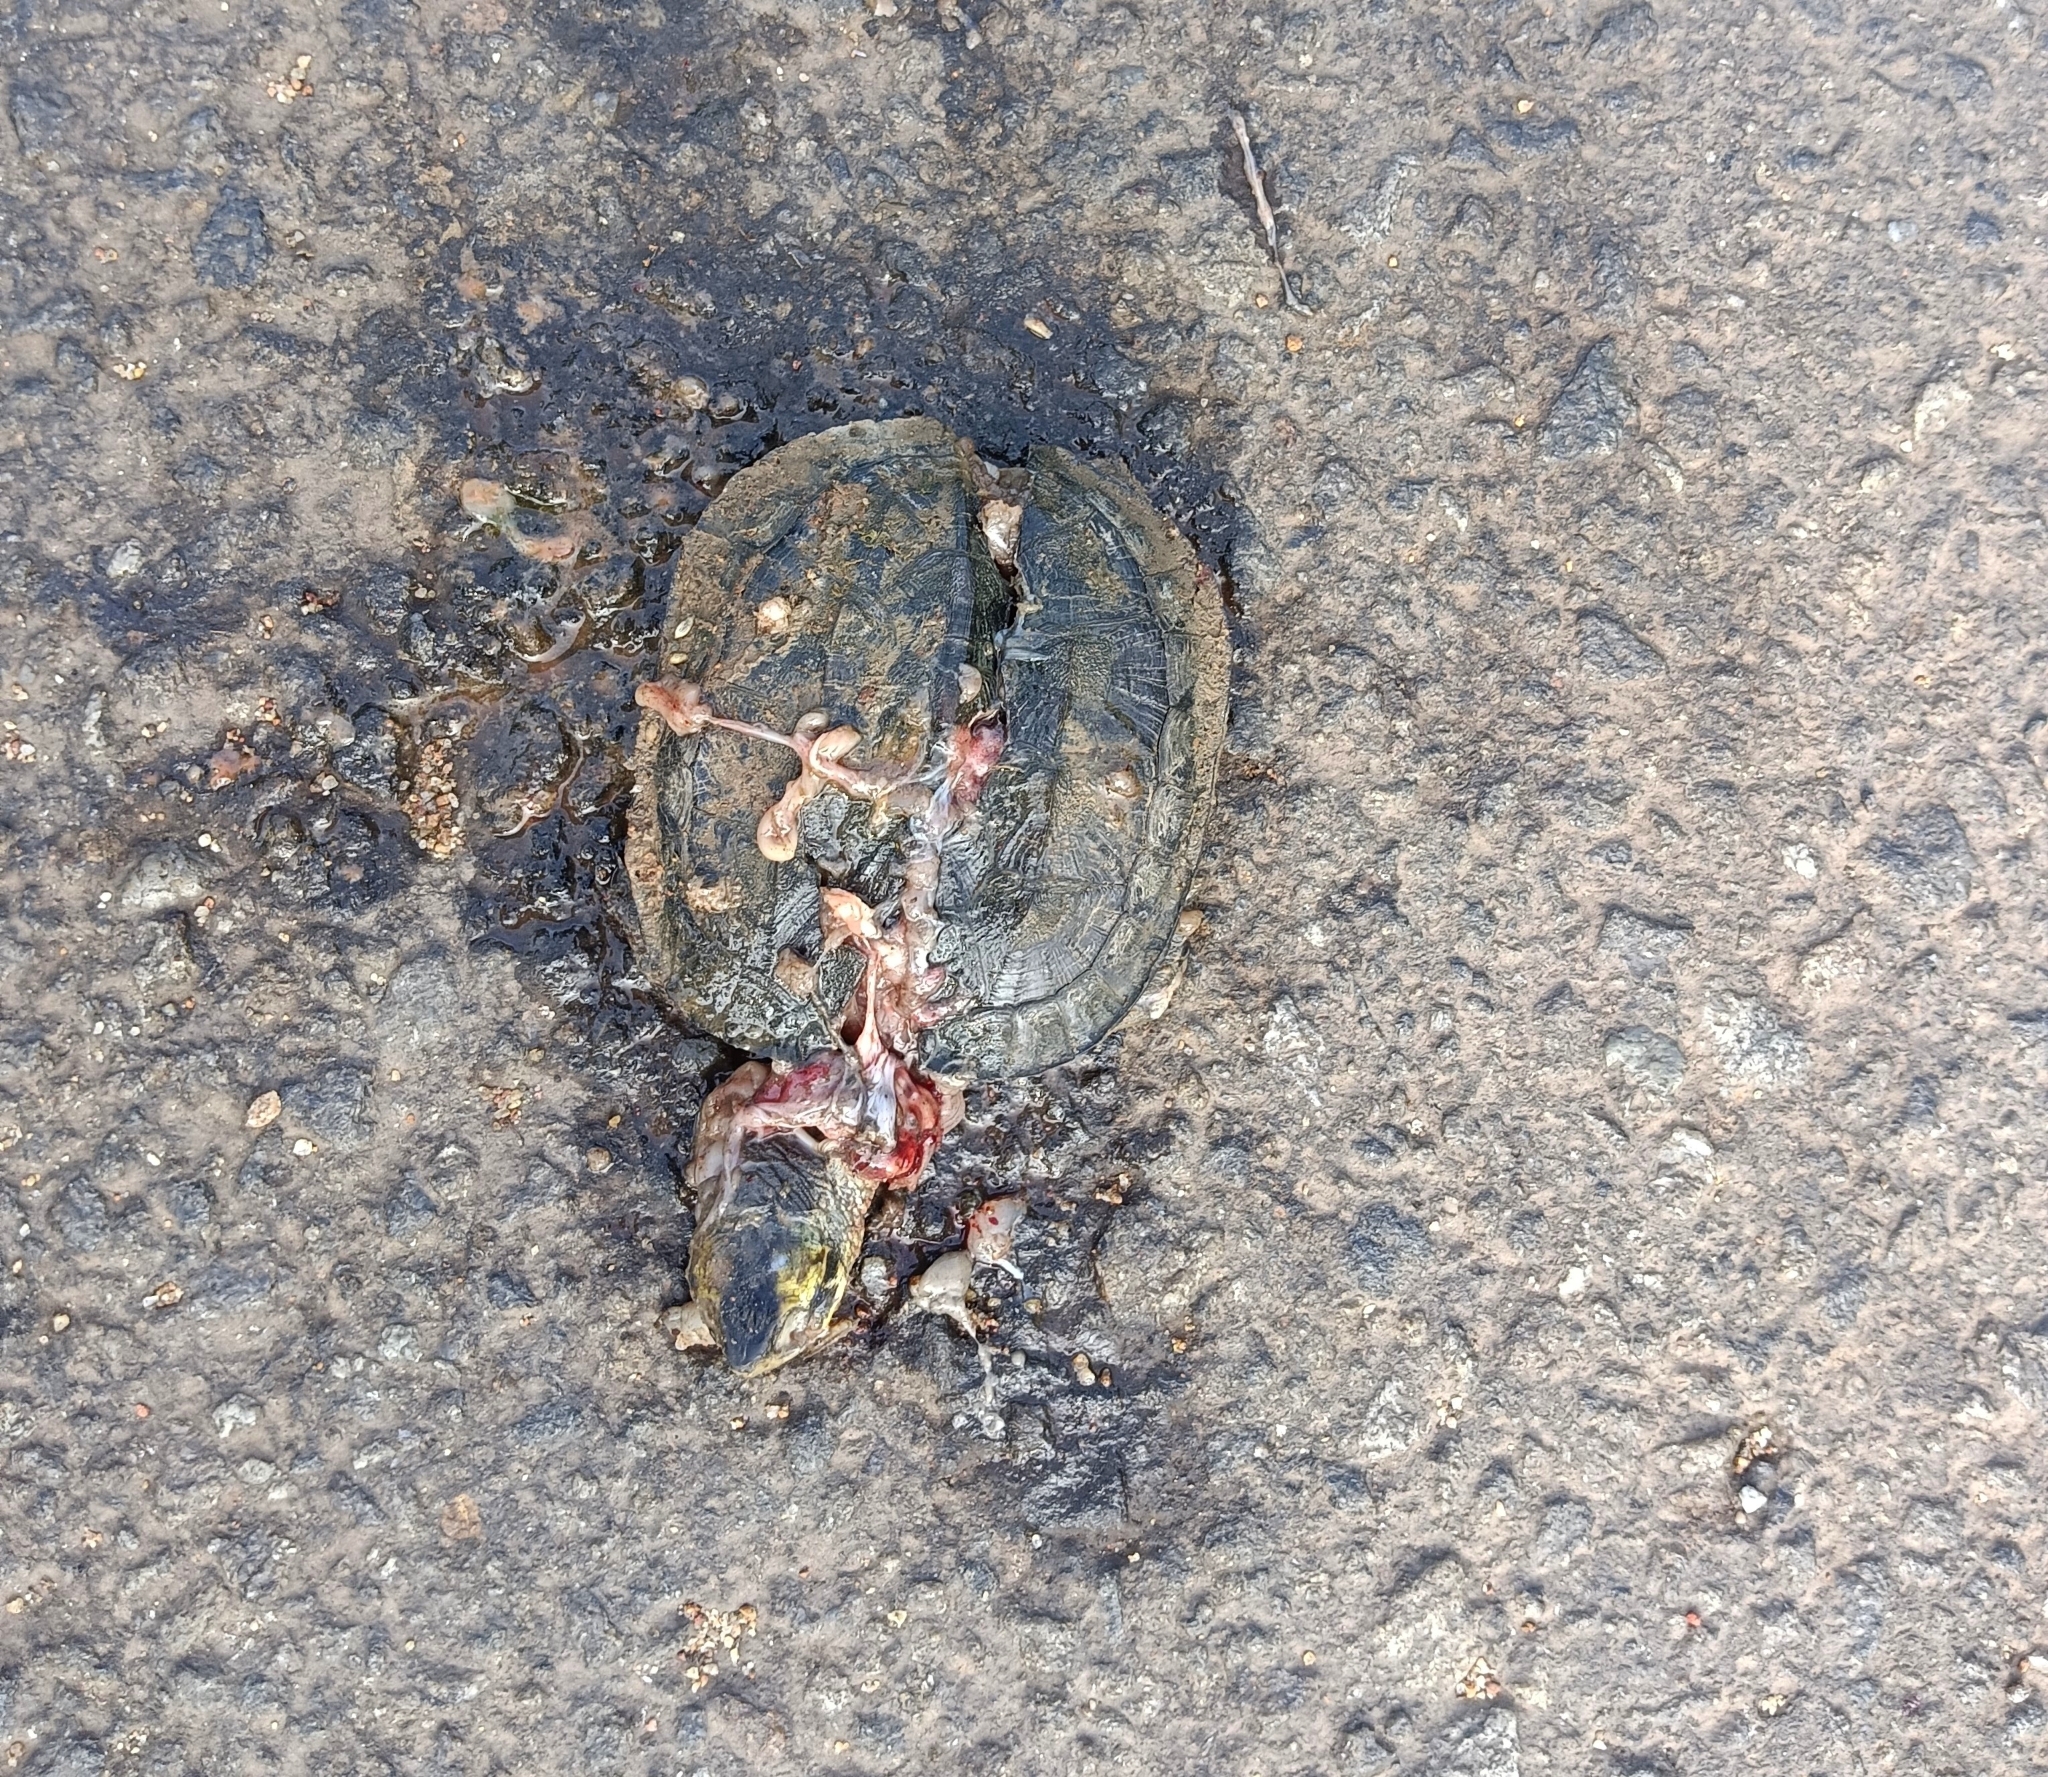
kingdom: Animalia
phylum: Chordata
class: Testudines
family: Geoemydidae
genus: Melanochelys
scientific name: Melanochelys trijuga
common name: Indian black turtle
